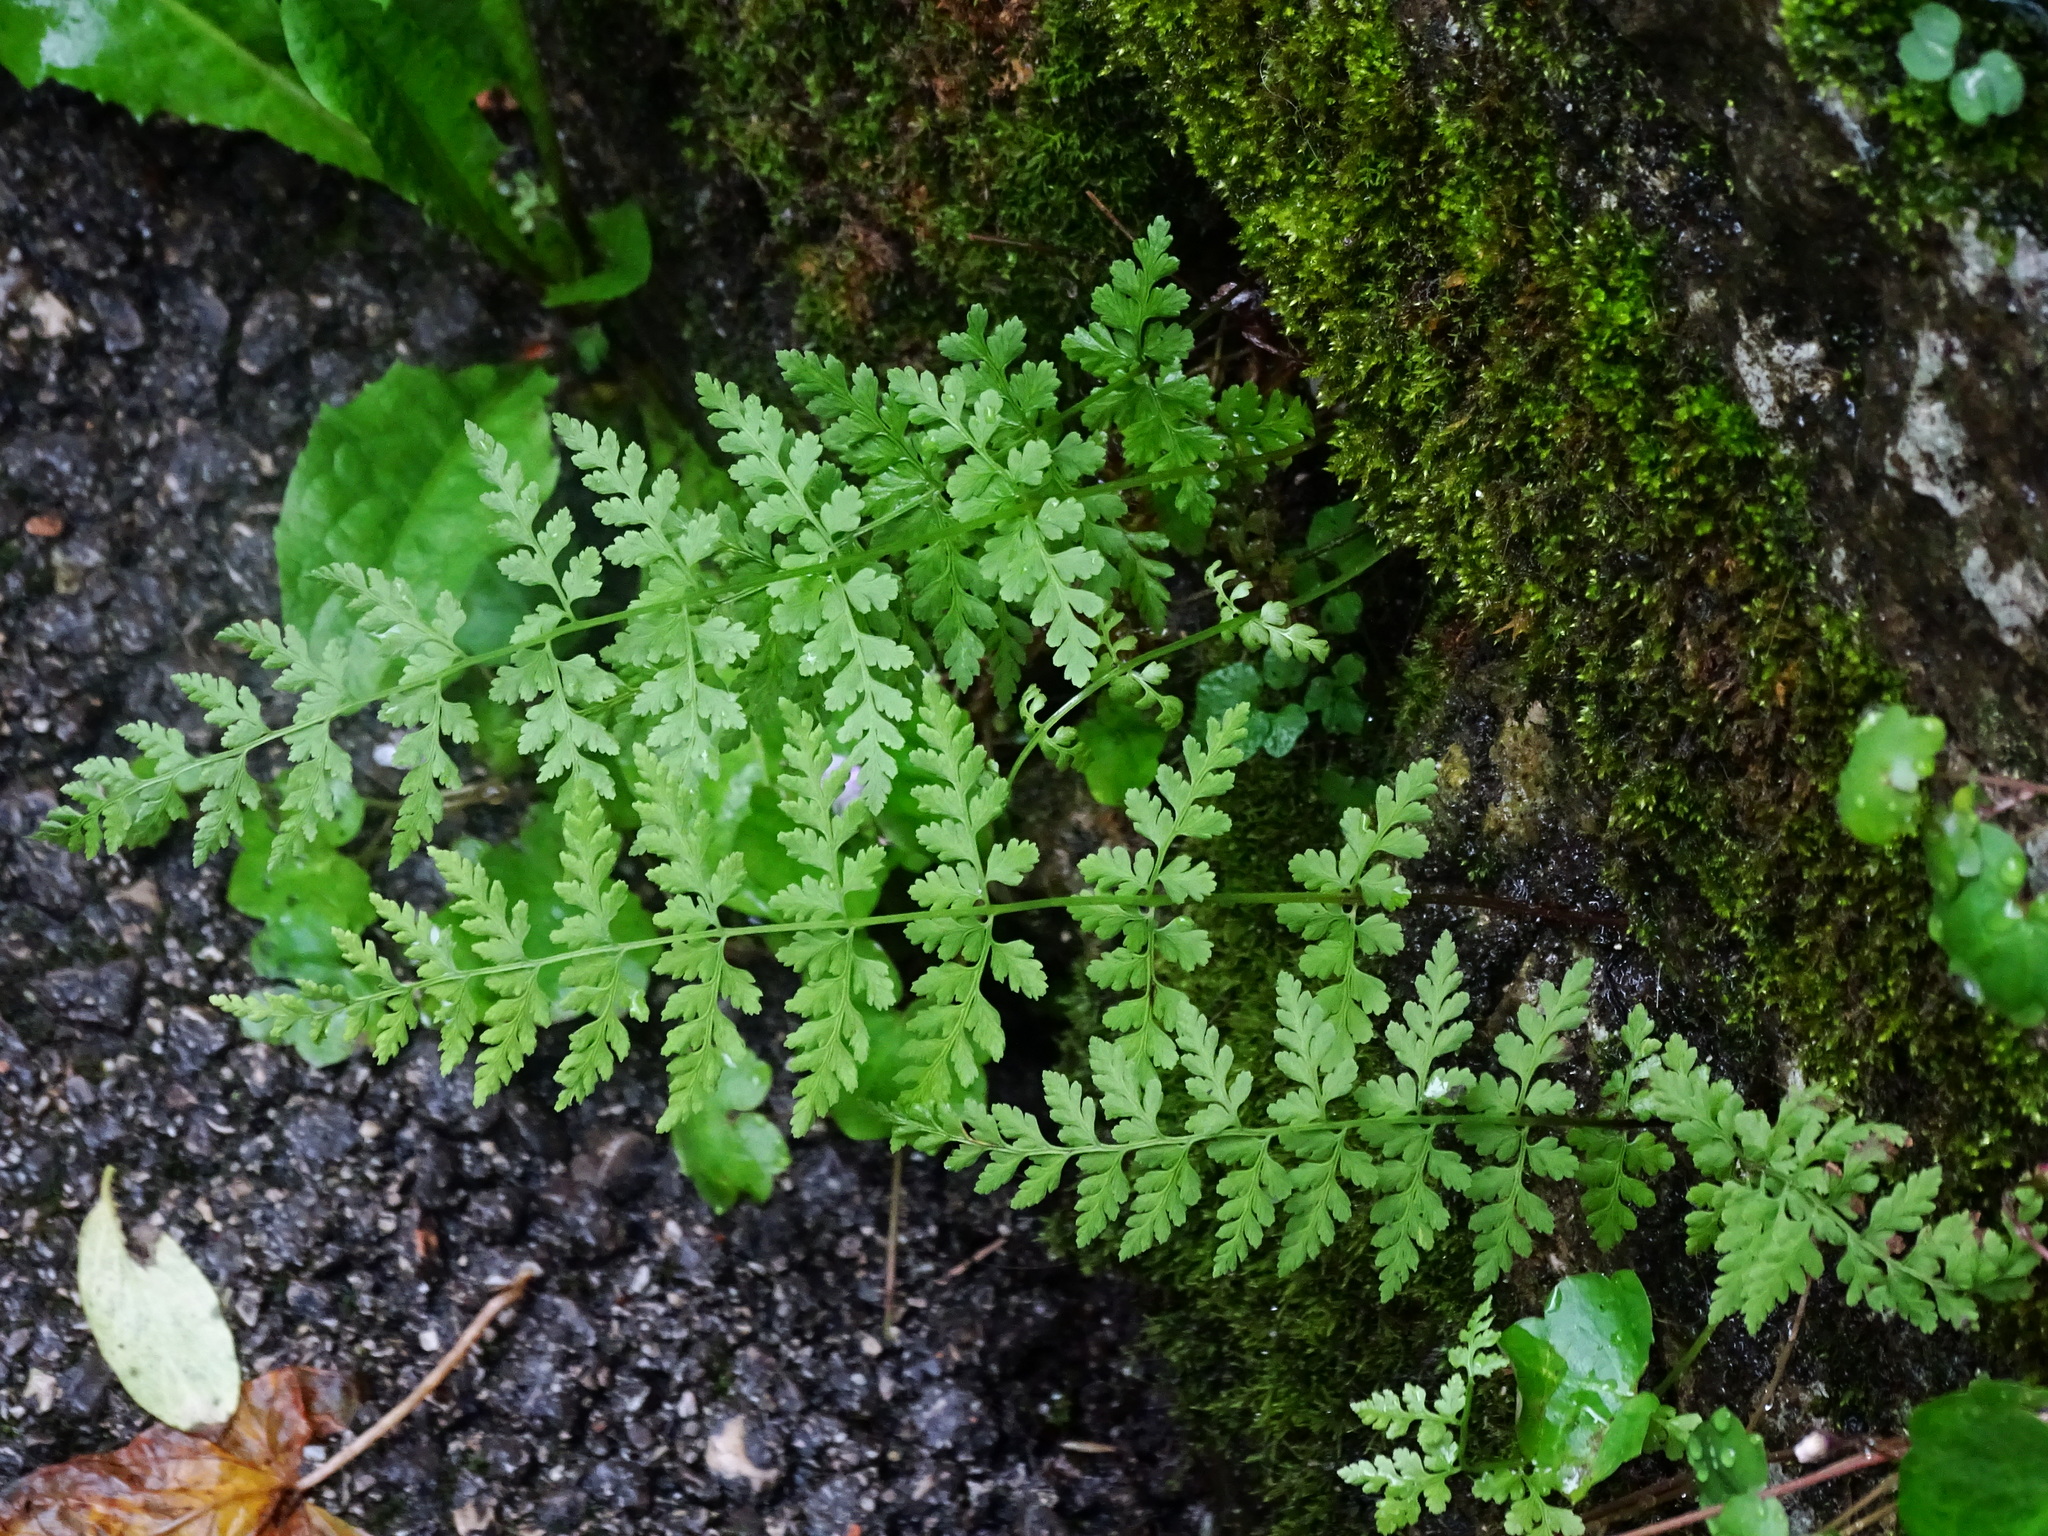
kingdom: Plantae
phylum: Tracheophyta
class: Polypodiopsida
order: Polypodiales
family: Cystopteridaceae
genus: Cystopteris
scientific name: Cystopteris fragilis
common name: Brittle bladder fern
